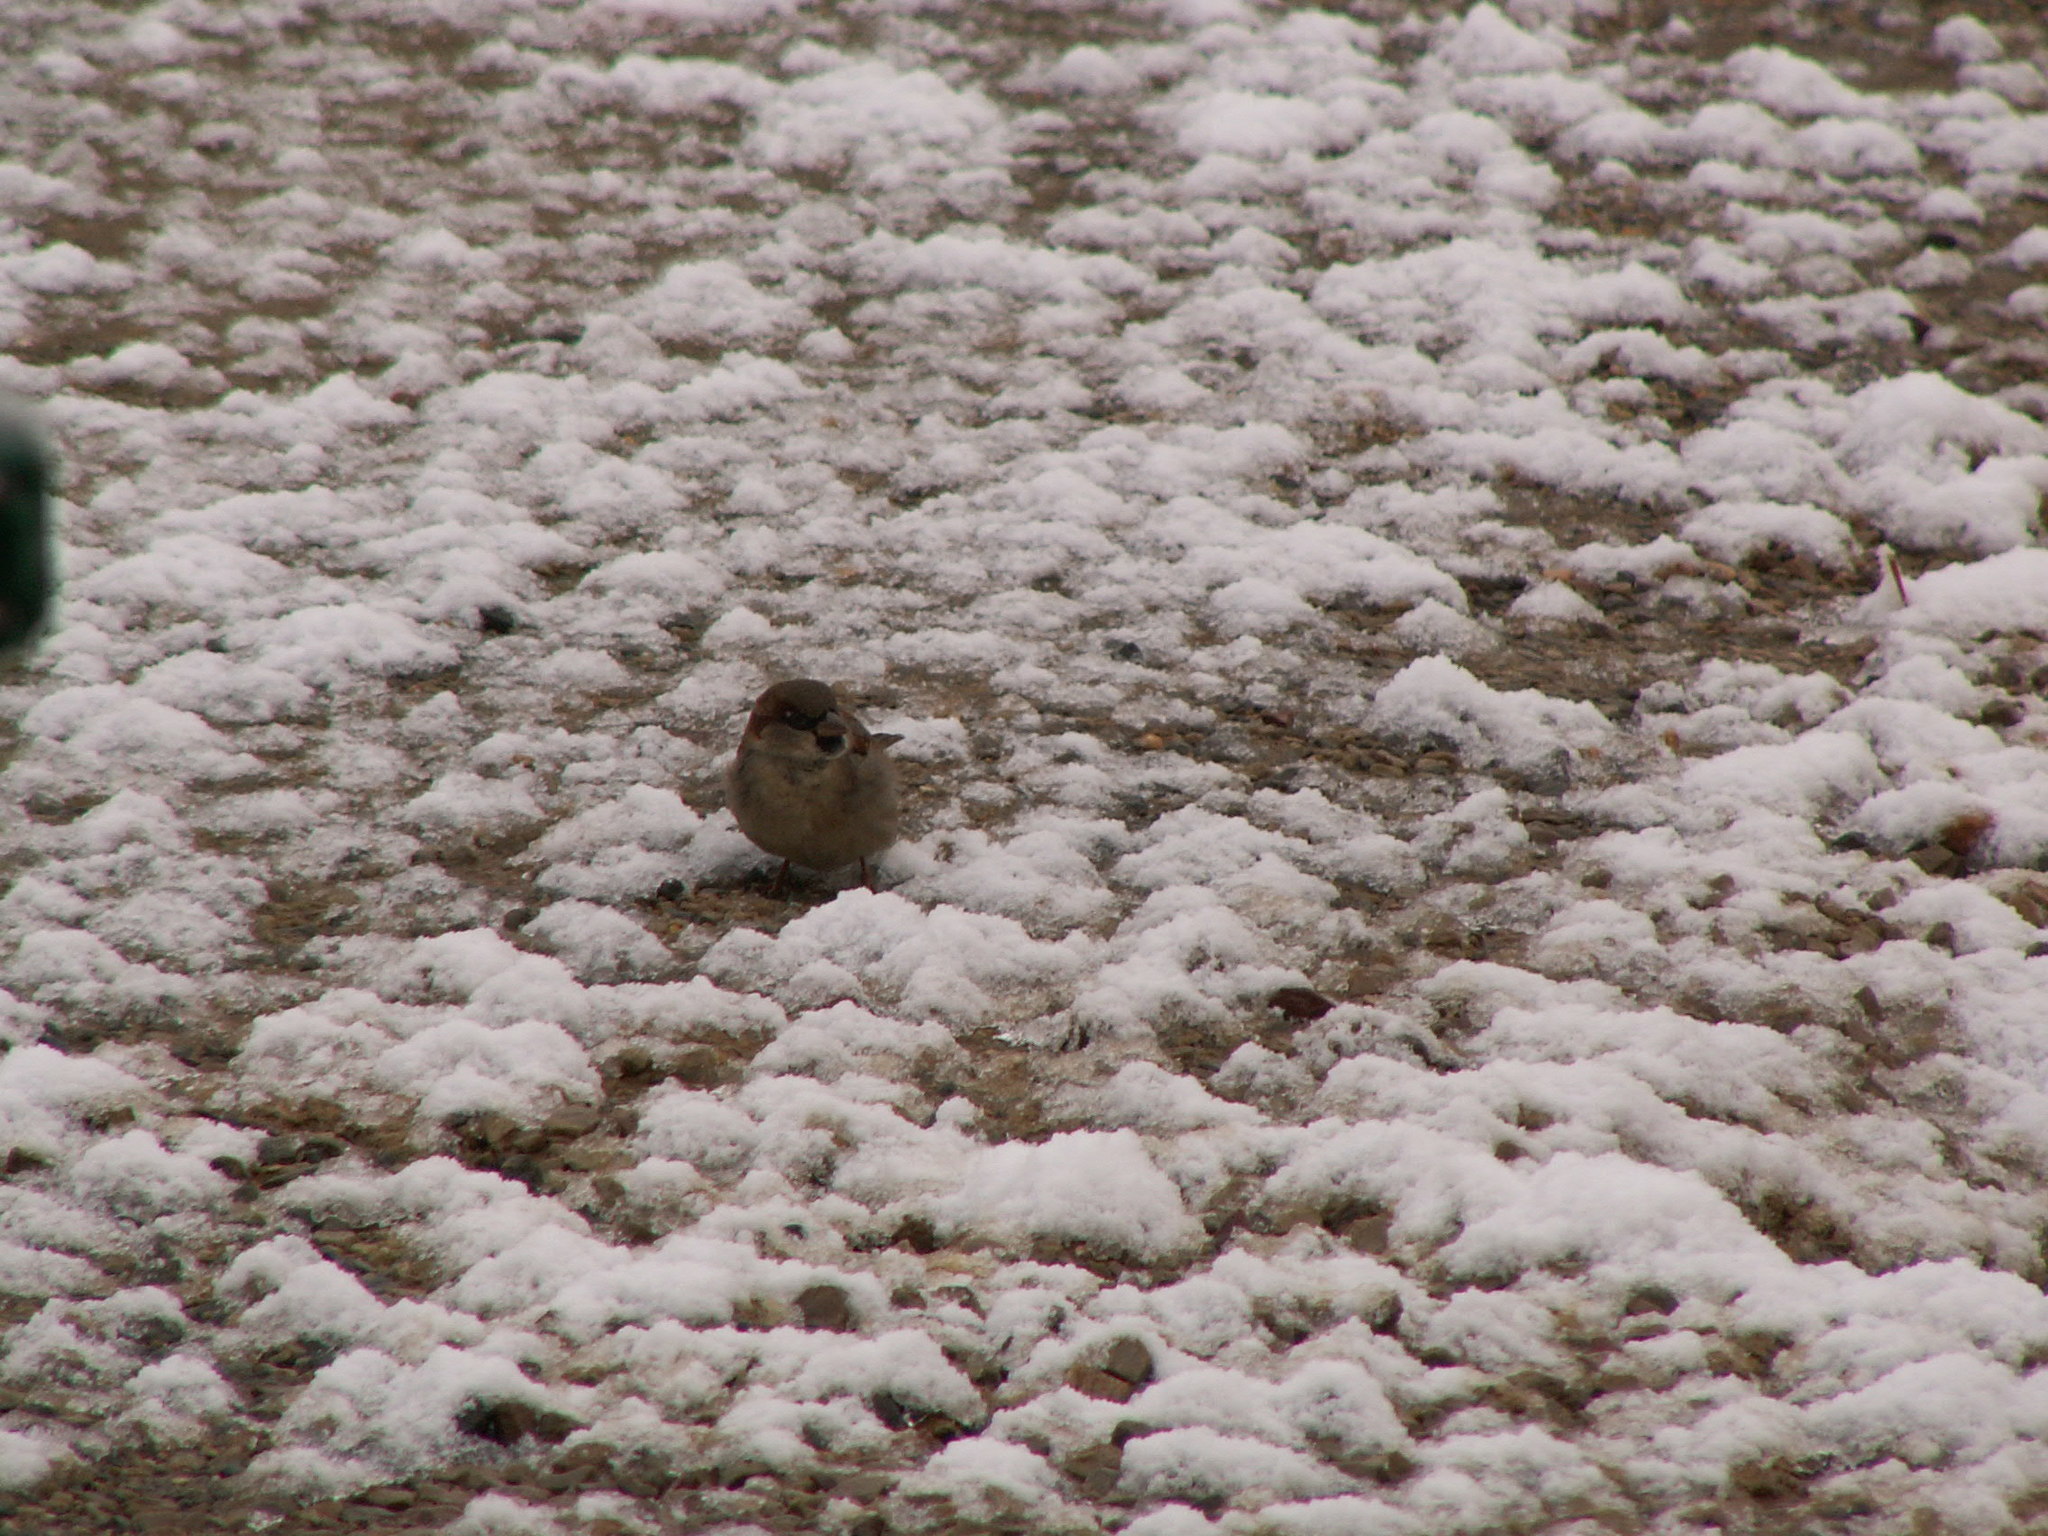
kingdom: Animalia
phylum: Chordata
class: Aves
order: Passeriformes
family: Passeridae
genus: Passer
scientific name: Passer domesticus
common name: House sparrow
